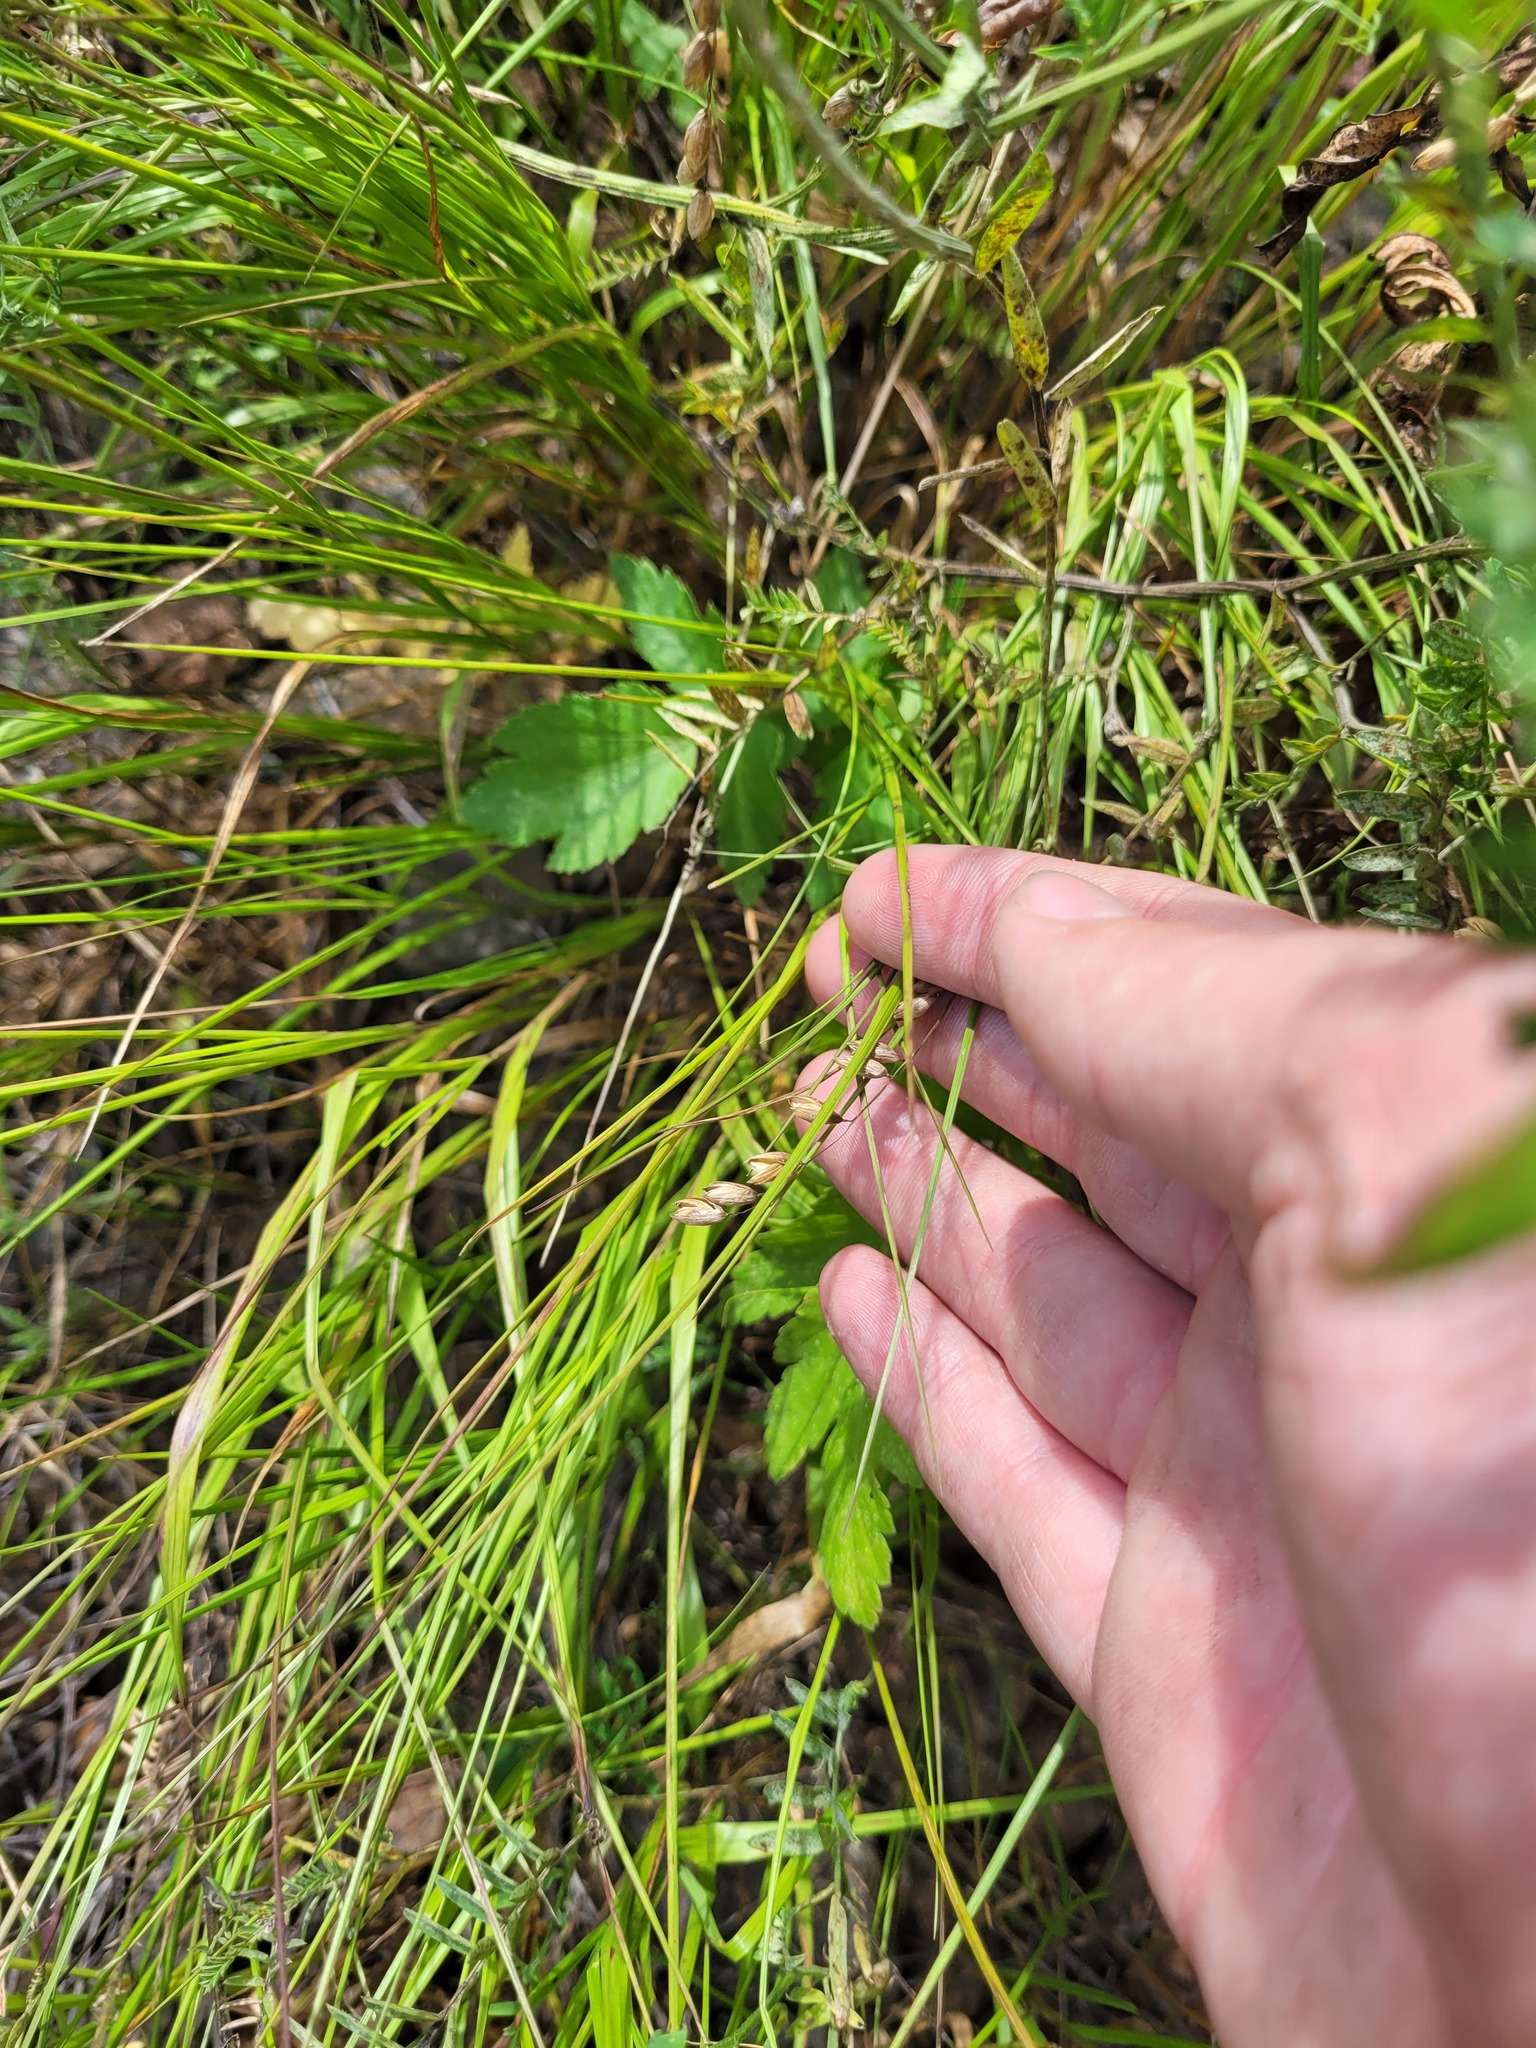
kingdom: Plantae
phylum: Tracheophyta
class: Liliopsida
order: Poales
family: Poaceae
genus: Melica
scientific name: Melica nutans
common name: Mountain melick
